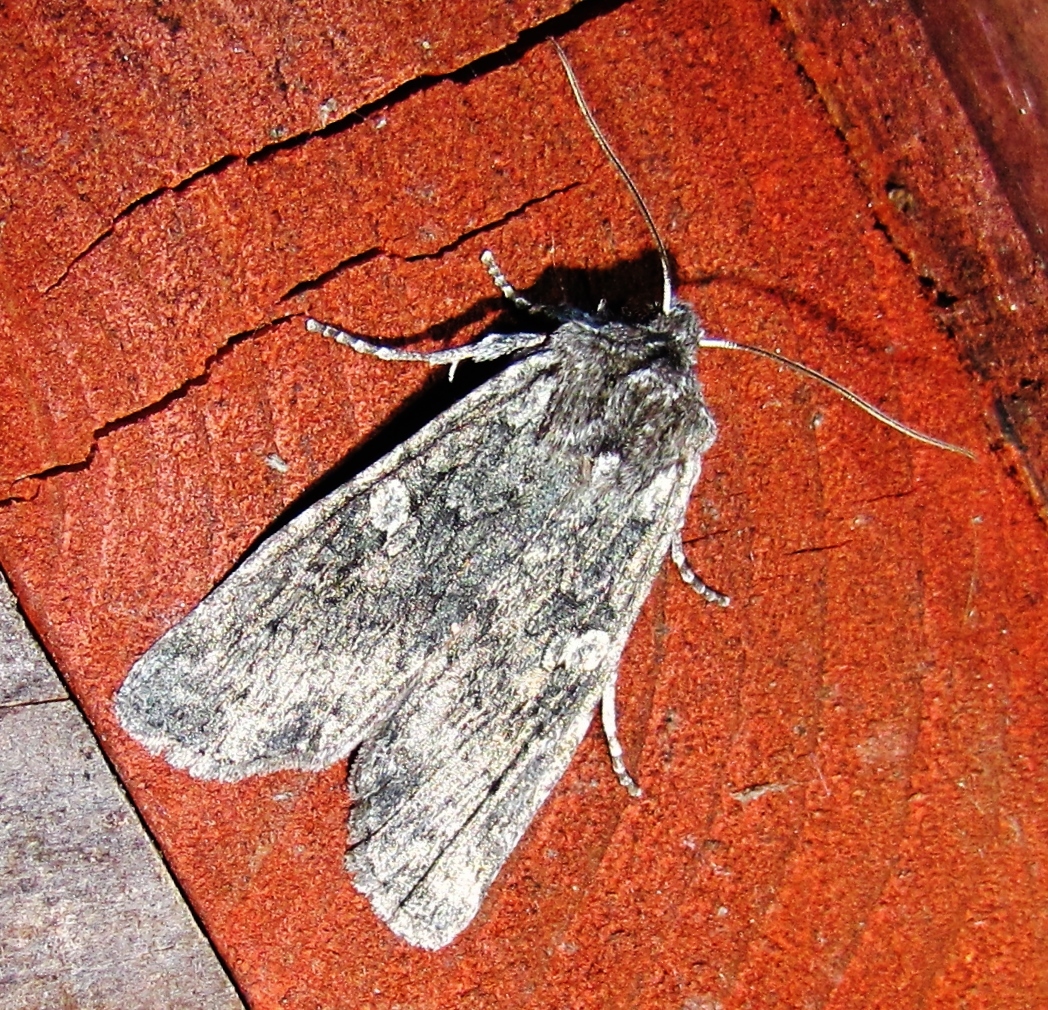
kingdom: Animalia
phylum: Arthropoda
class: Insecta
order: Lepidoptera
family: Noctuidae
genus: Lithophane
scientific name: Lithophane grotei
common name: Grote's pinion moth
